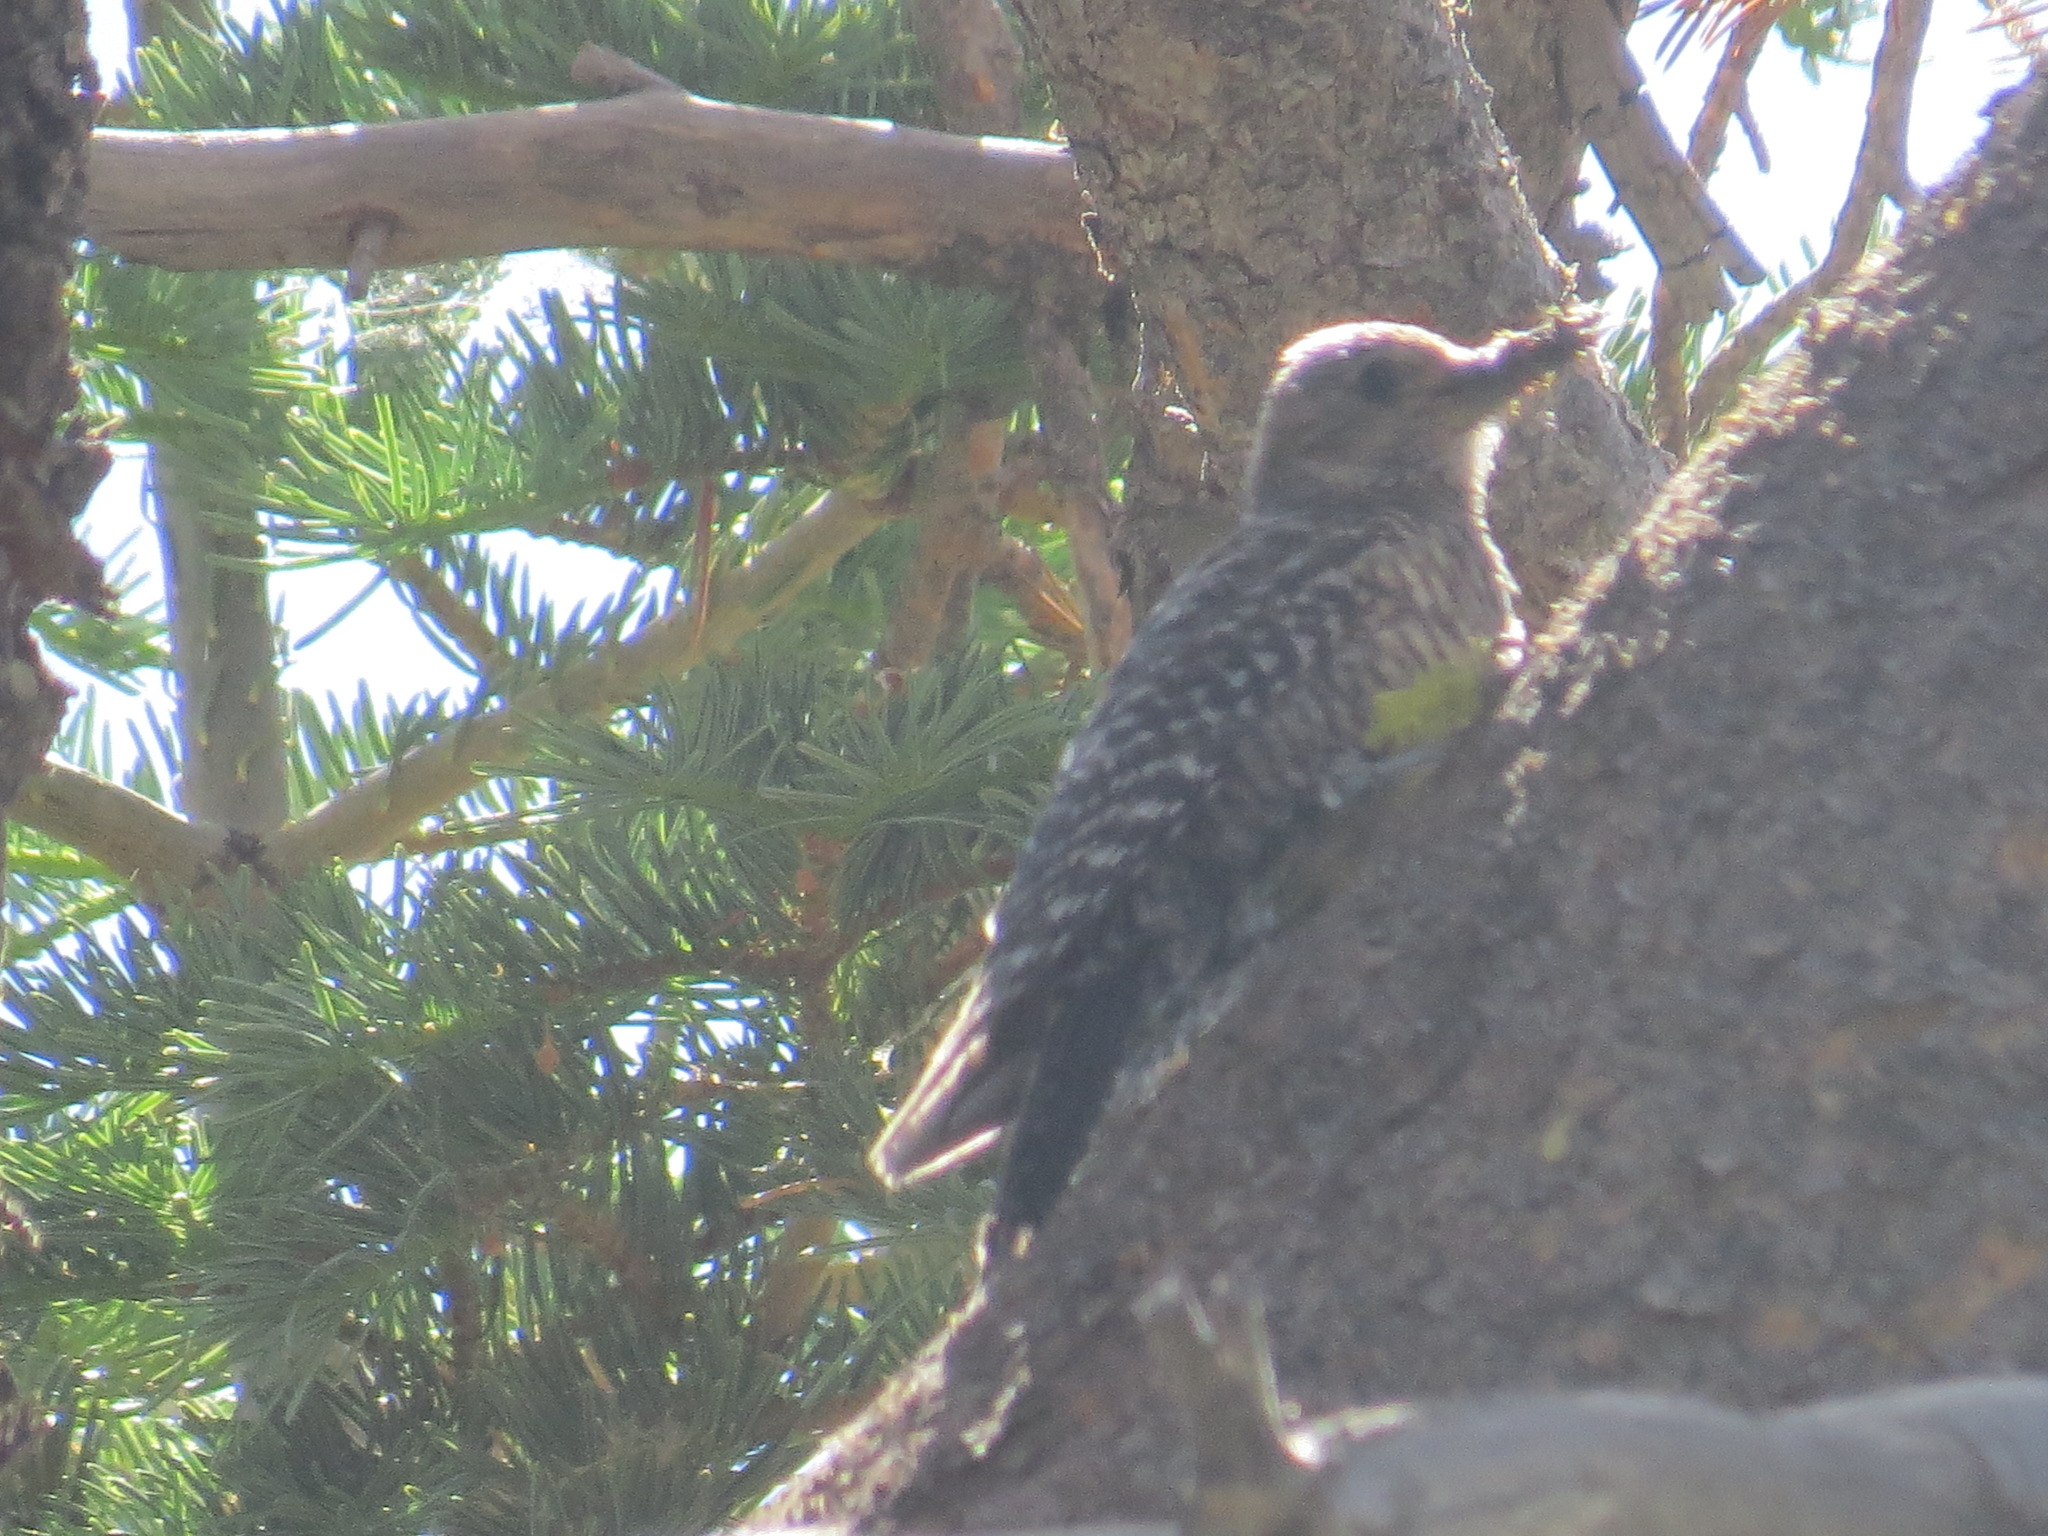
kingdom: Animalia
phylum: Chordata
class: Aves
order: Piciformes
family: Picidae
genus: Sphyrapicus
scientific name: Sphyrapicus thyroideus
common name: Williamson's sapsucker
